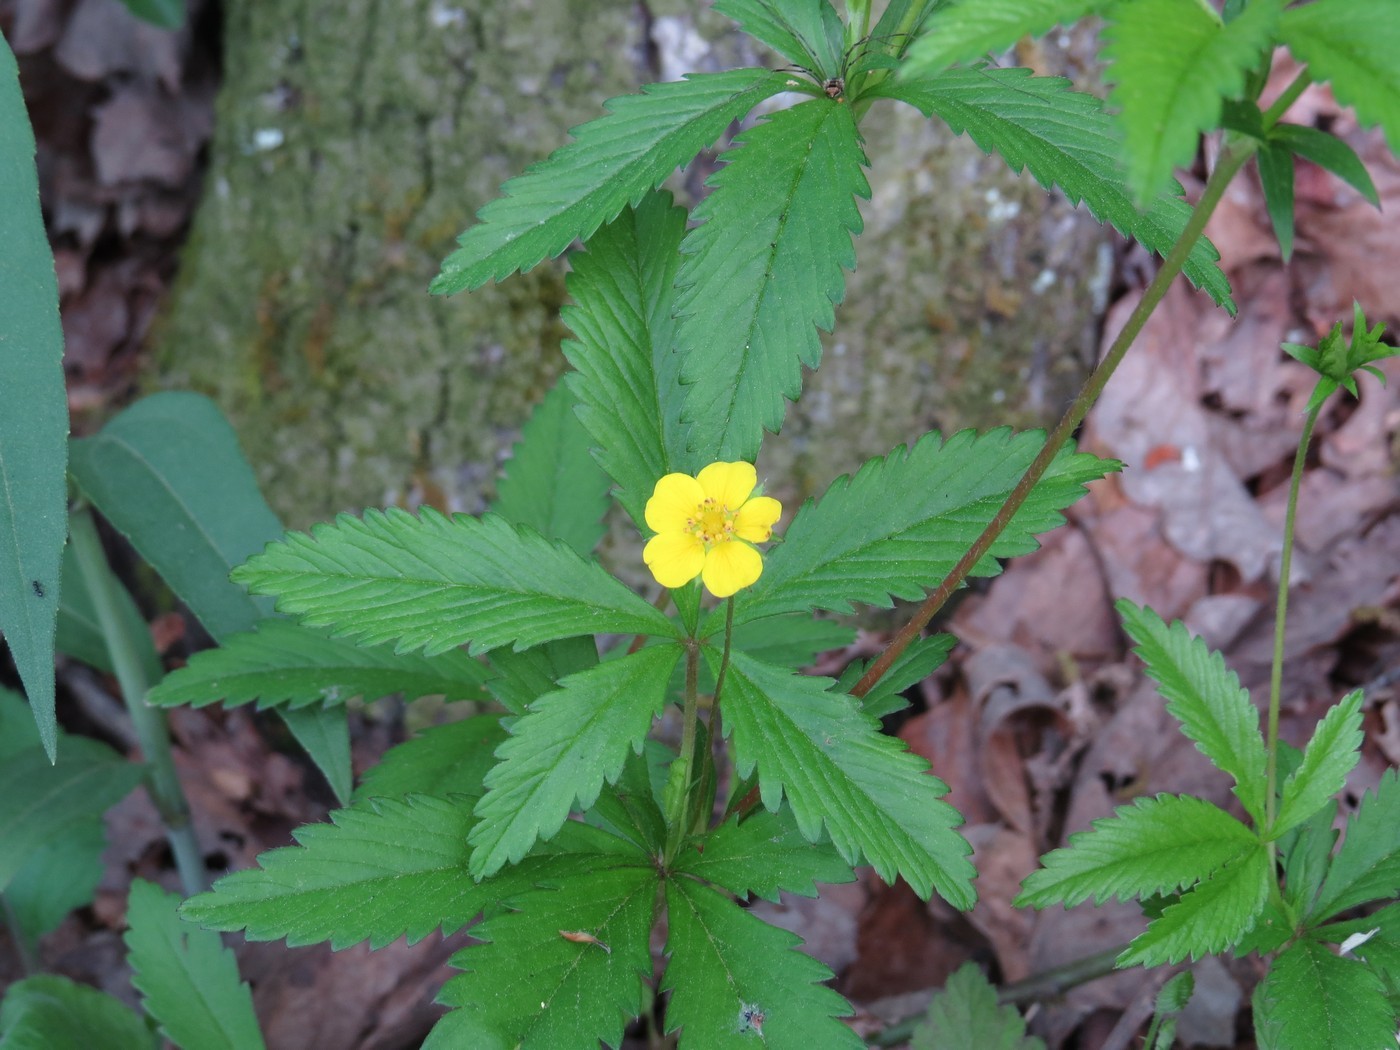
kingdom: Plantae
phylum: Tracheophyta
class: Magnoliopsida
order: Rosales
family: Rosaceae
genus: Potentilla
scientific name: Potentilla simplex
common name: Old field cinquefoil
